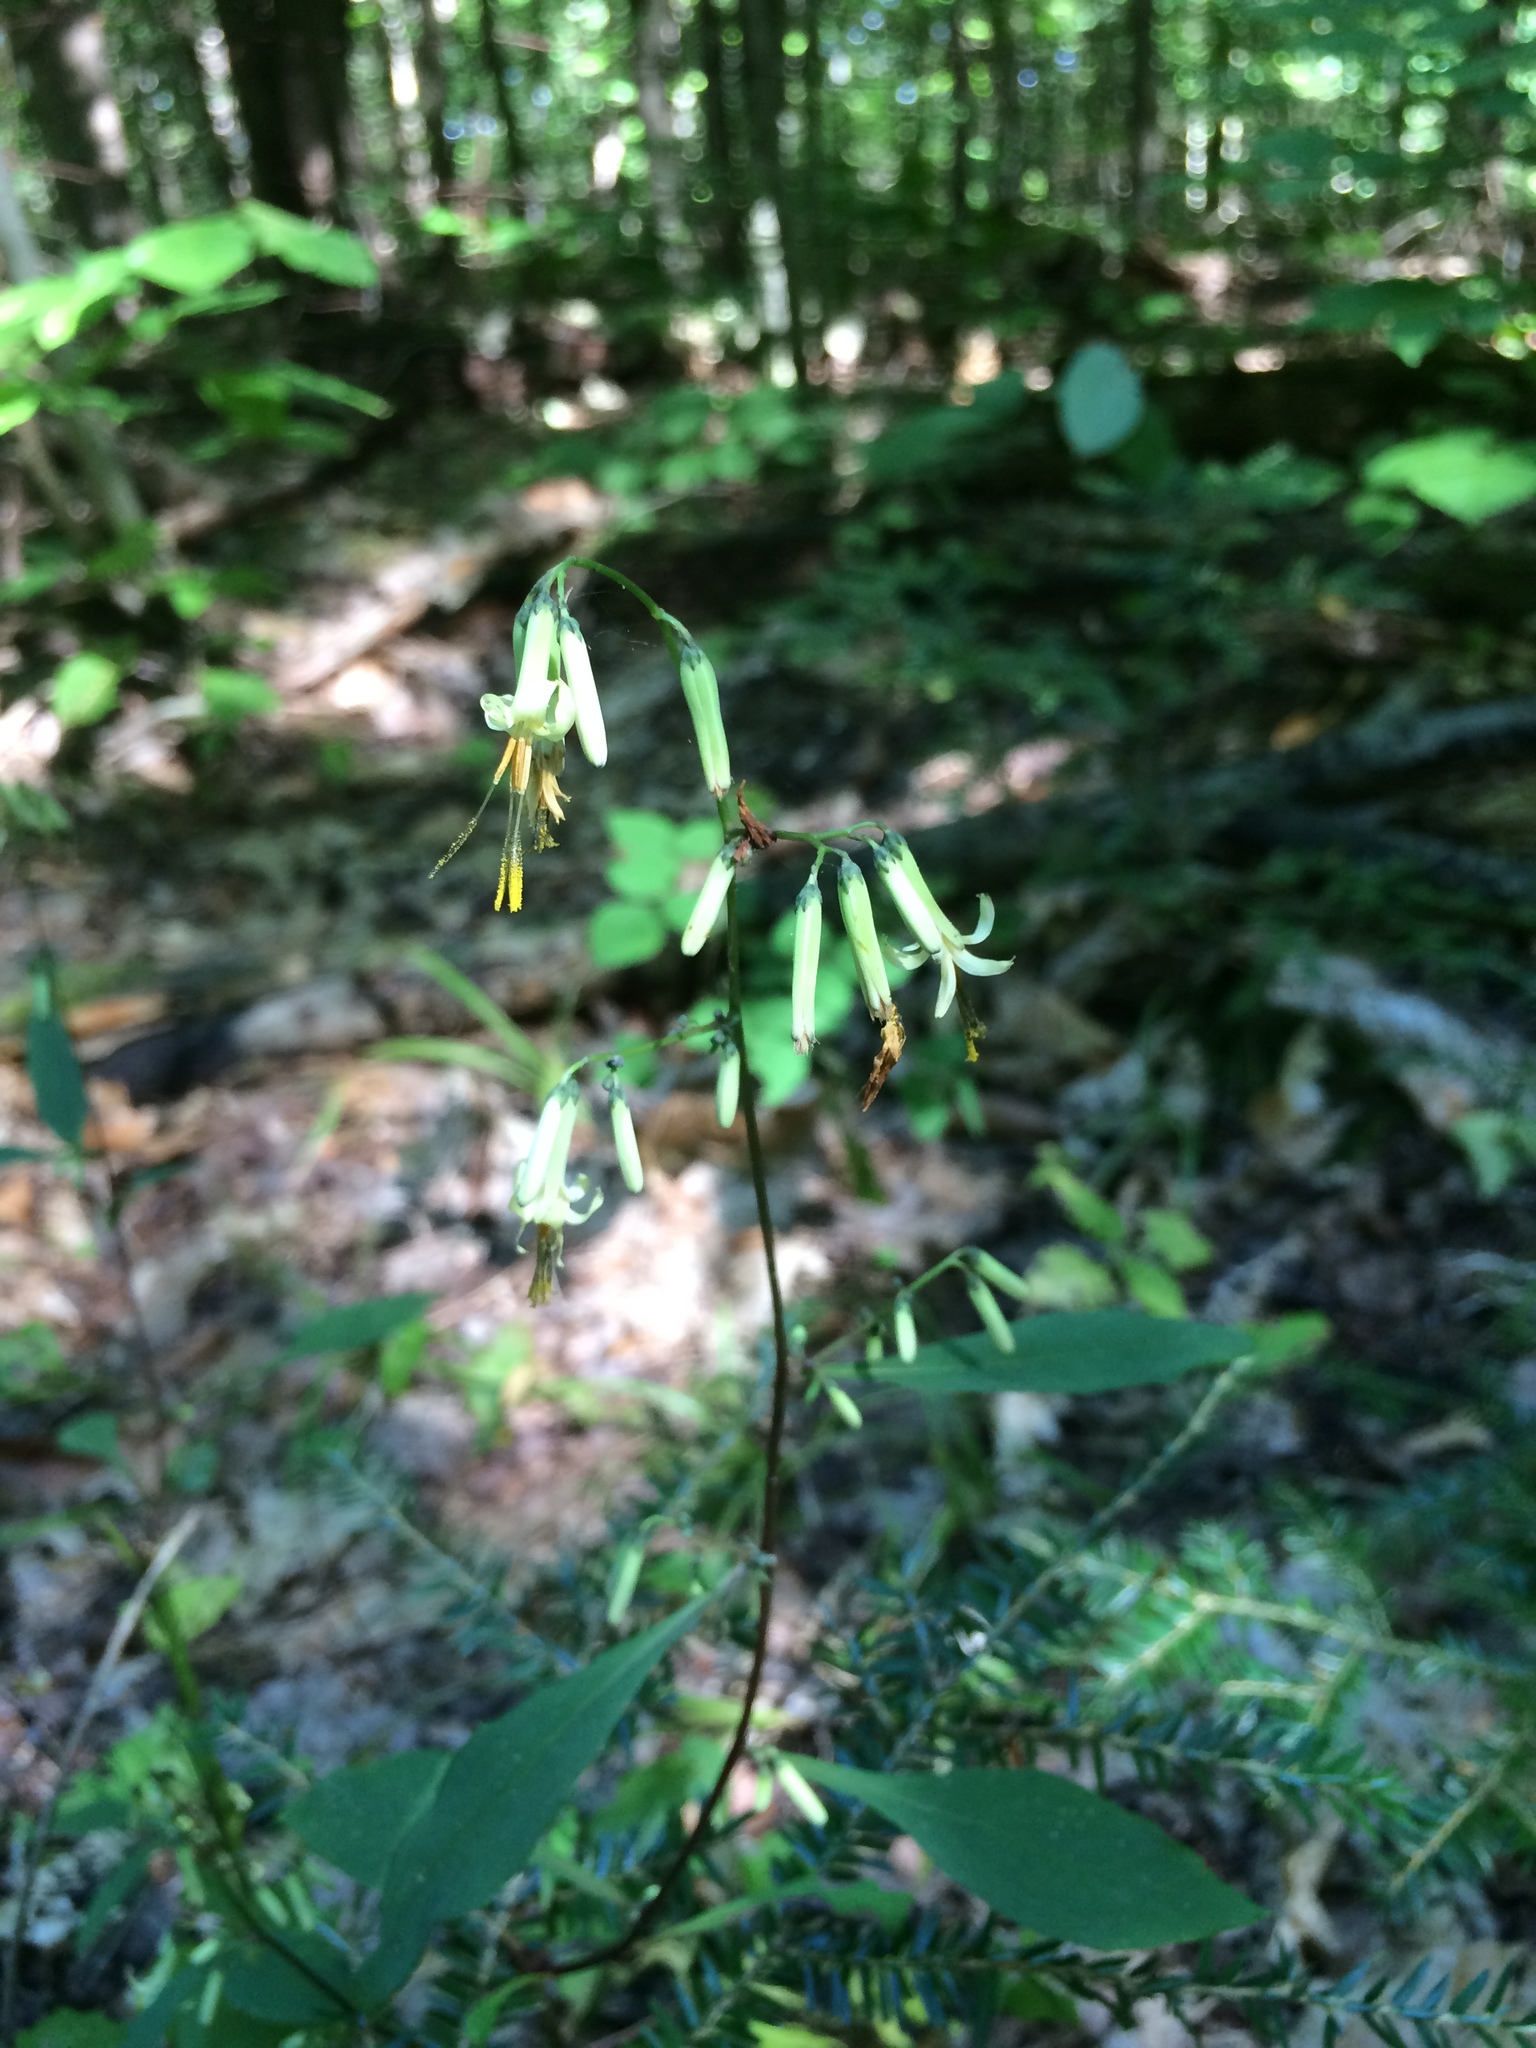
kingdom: Plantae
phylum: Tracheophyta
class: Magnoliopsida
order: Asterales
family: Asteraceae
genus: Nabalus
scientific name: Nabalus altissima
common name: Tall rattlesnakeroot
